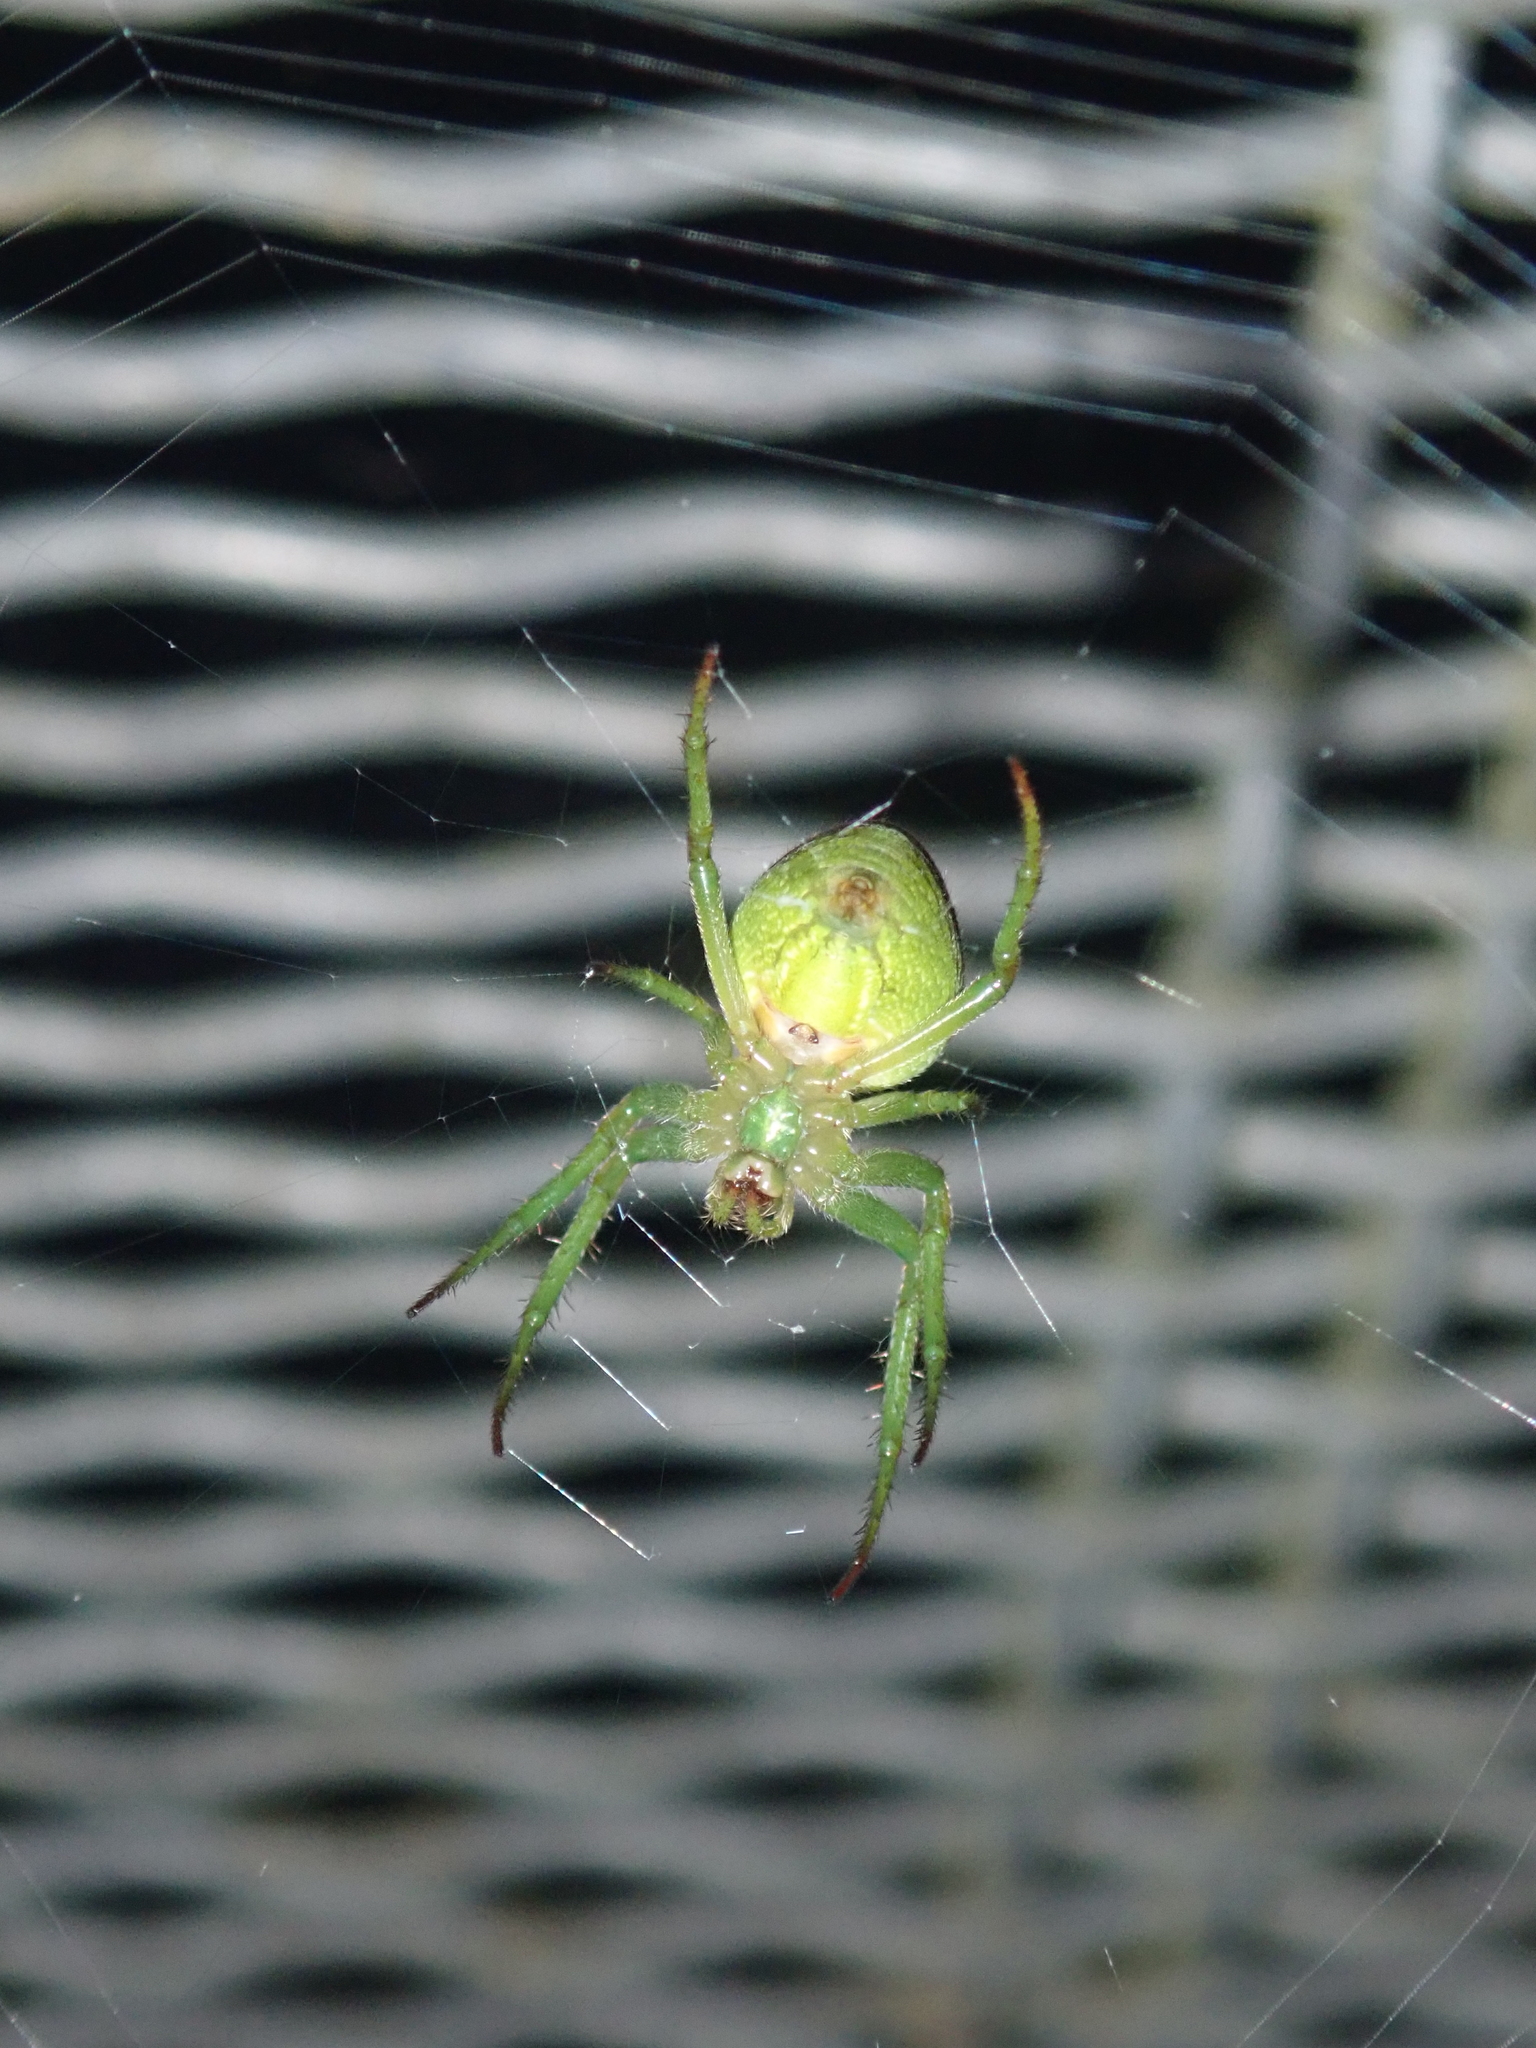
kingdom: Animalia
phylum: Arthropoda
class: Arachnida
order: Araneae
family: Araneidae
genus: Colaranea
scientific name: Colaranea viriditas
